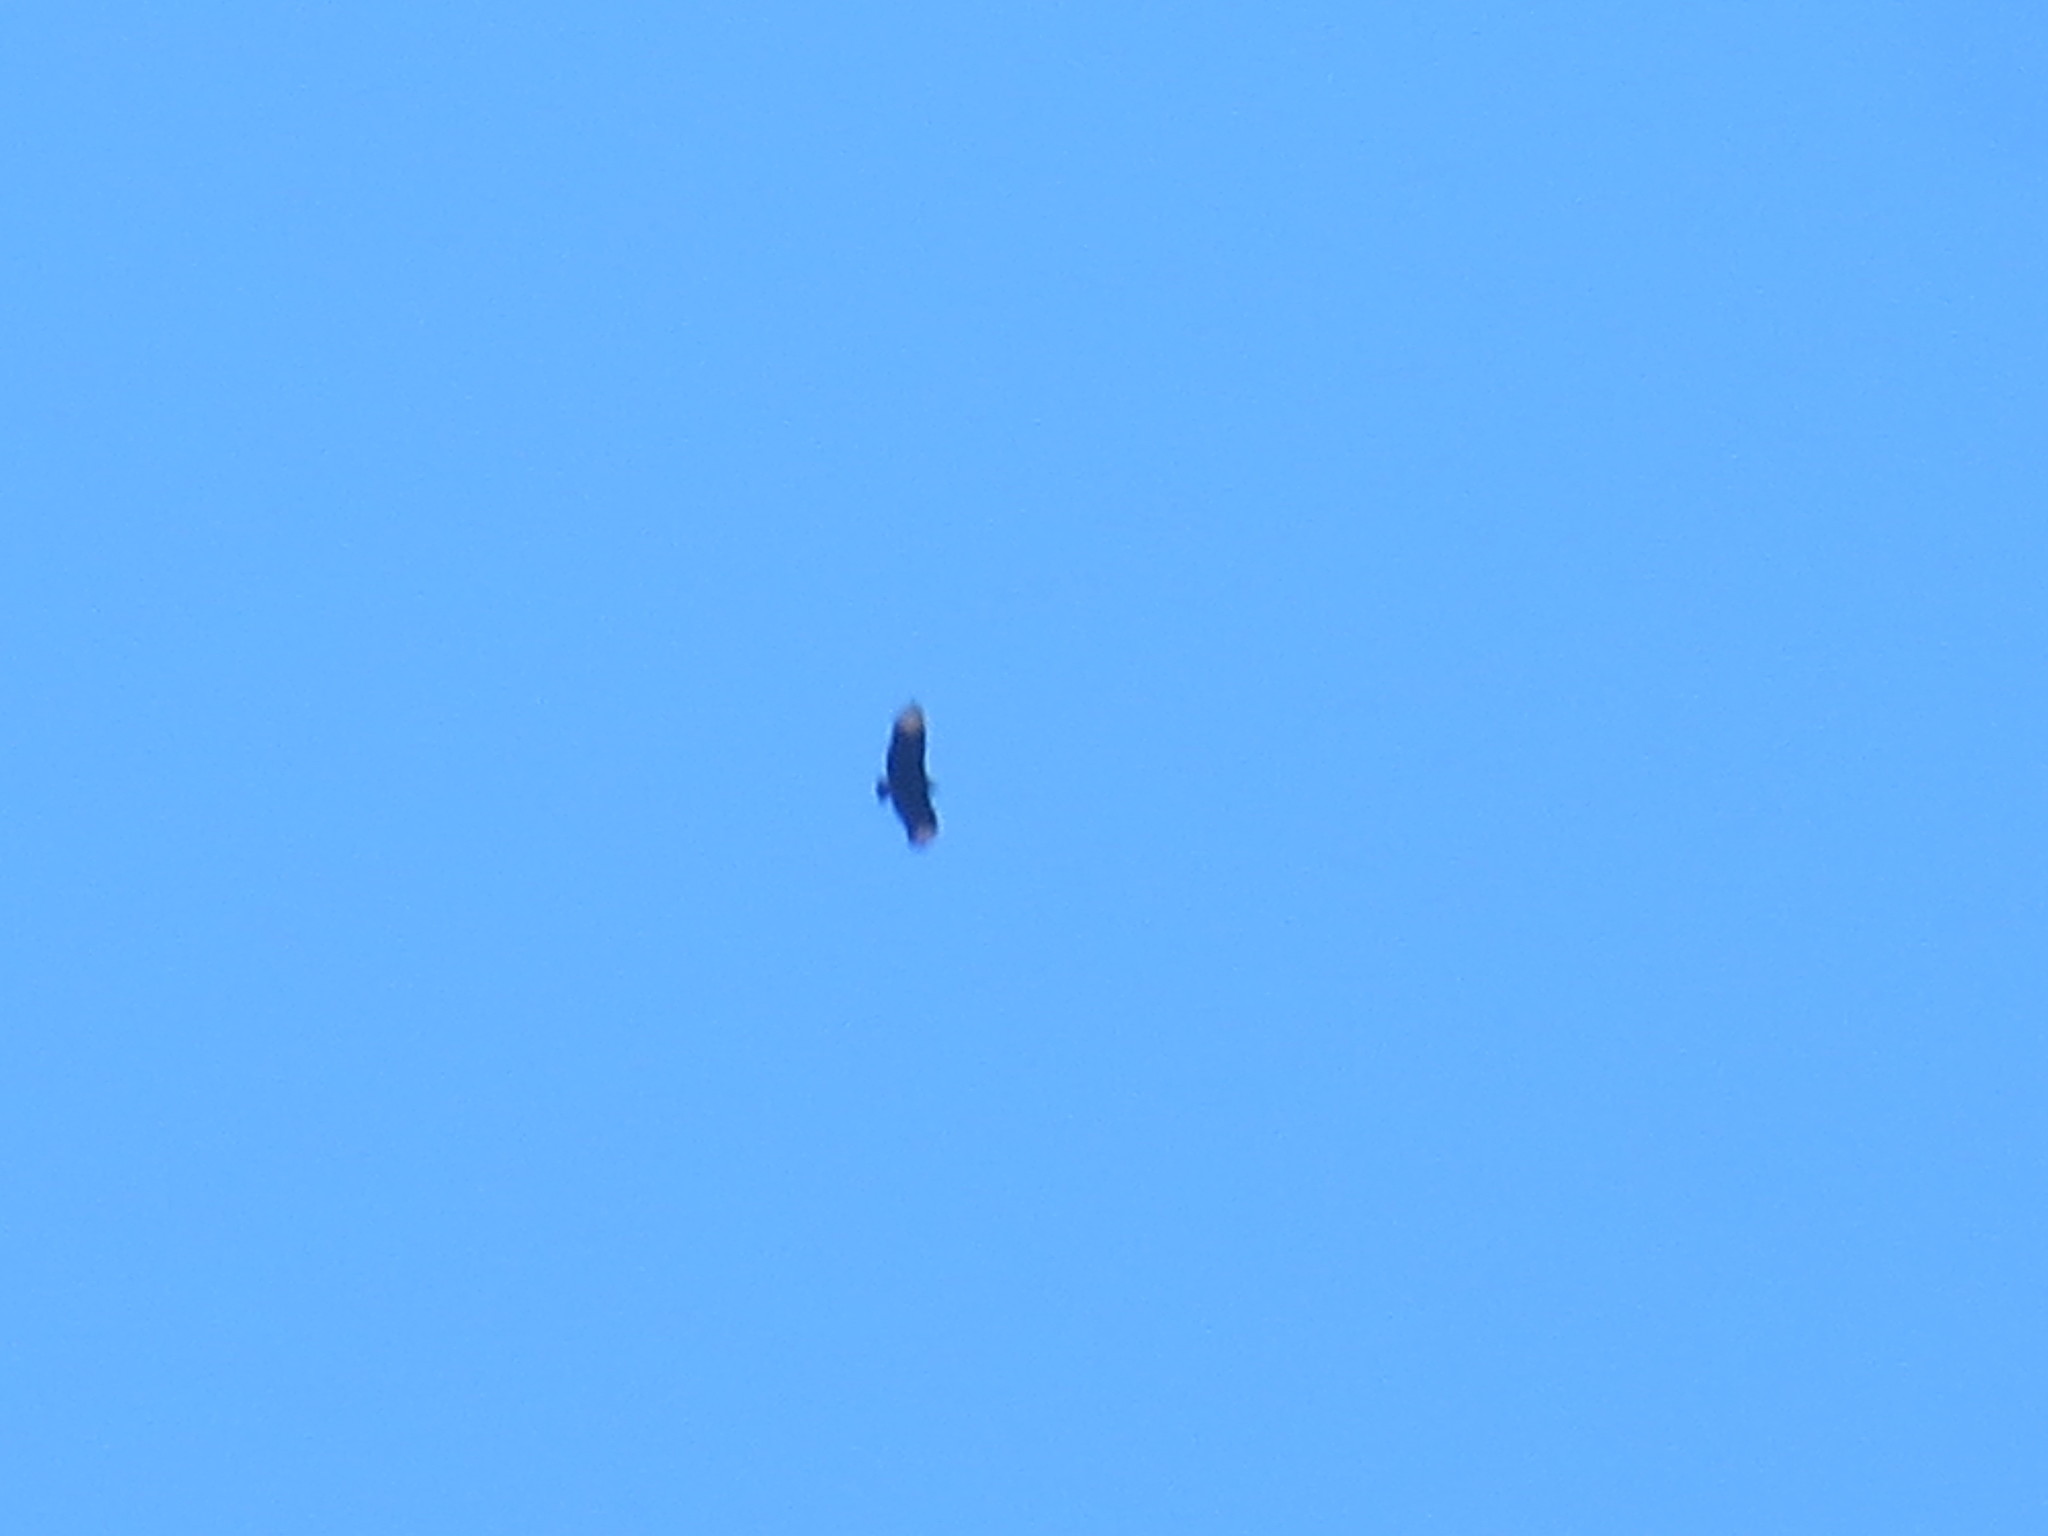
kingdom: Animalia
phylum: Chordata
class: Aves
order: Accipitriformes
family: Cathartidae
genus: Coragyps
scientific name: Coragyps atratus
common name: Black vulture
